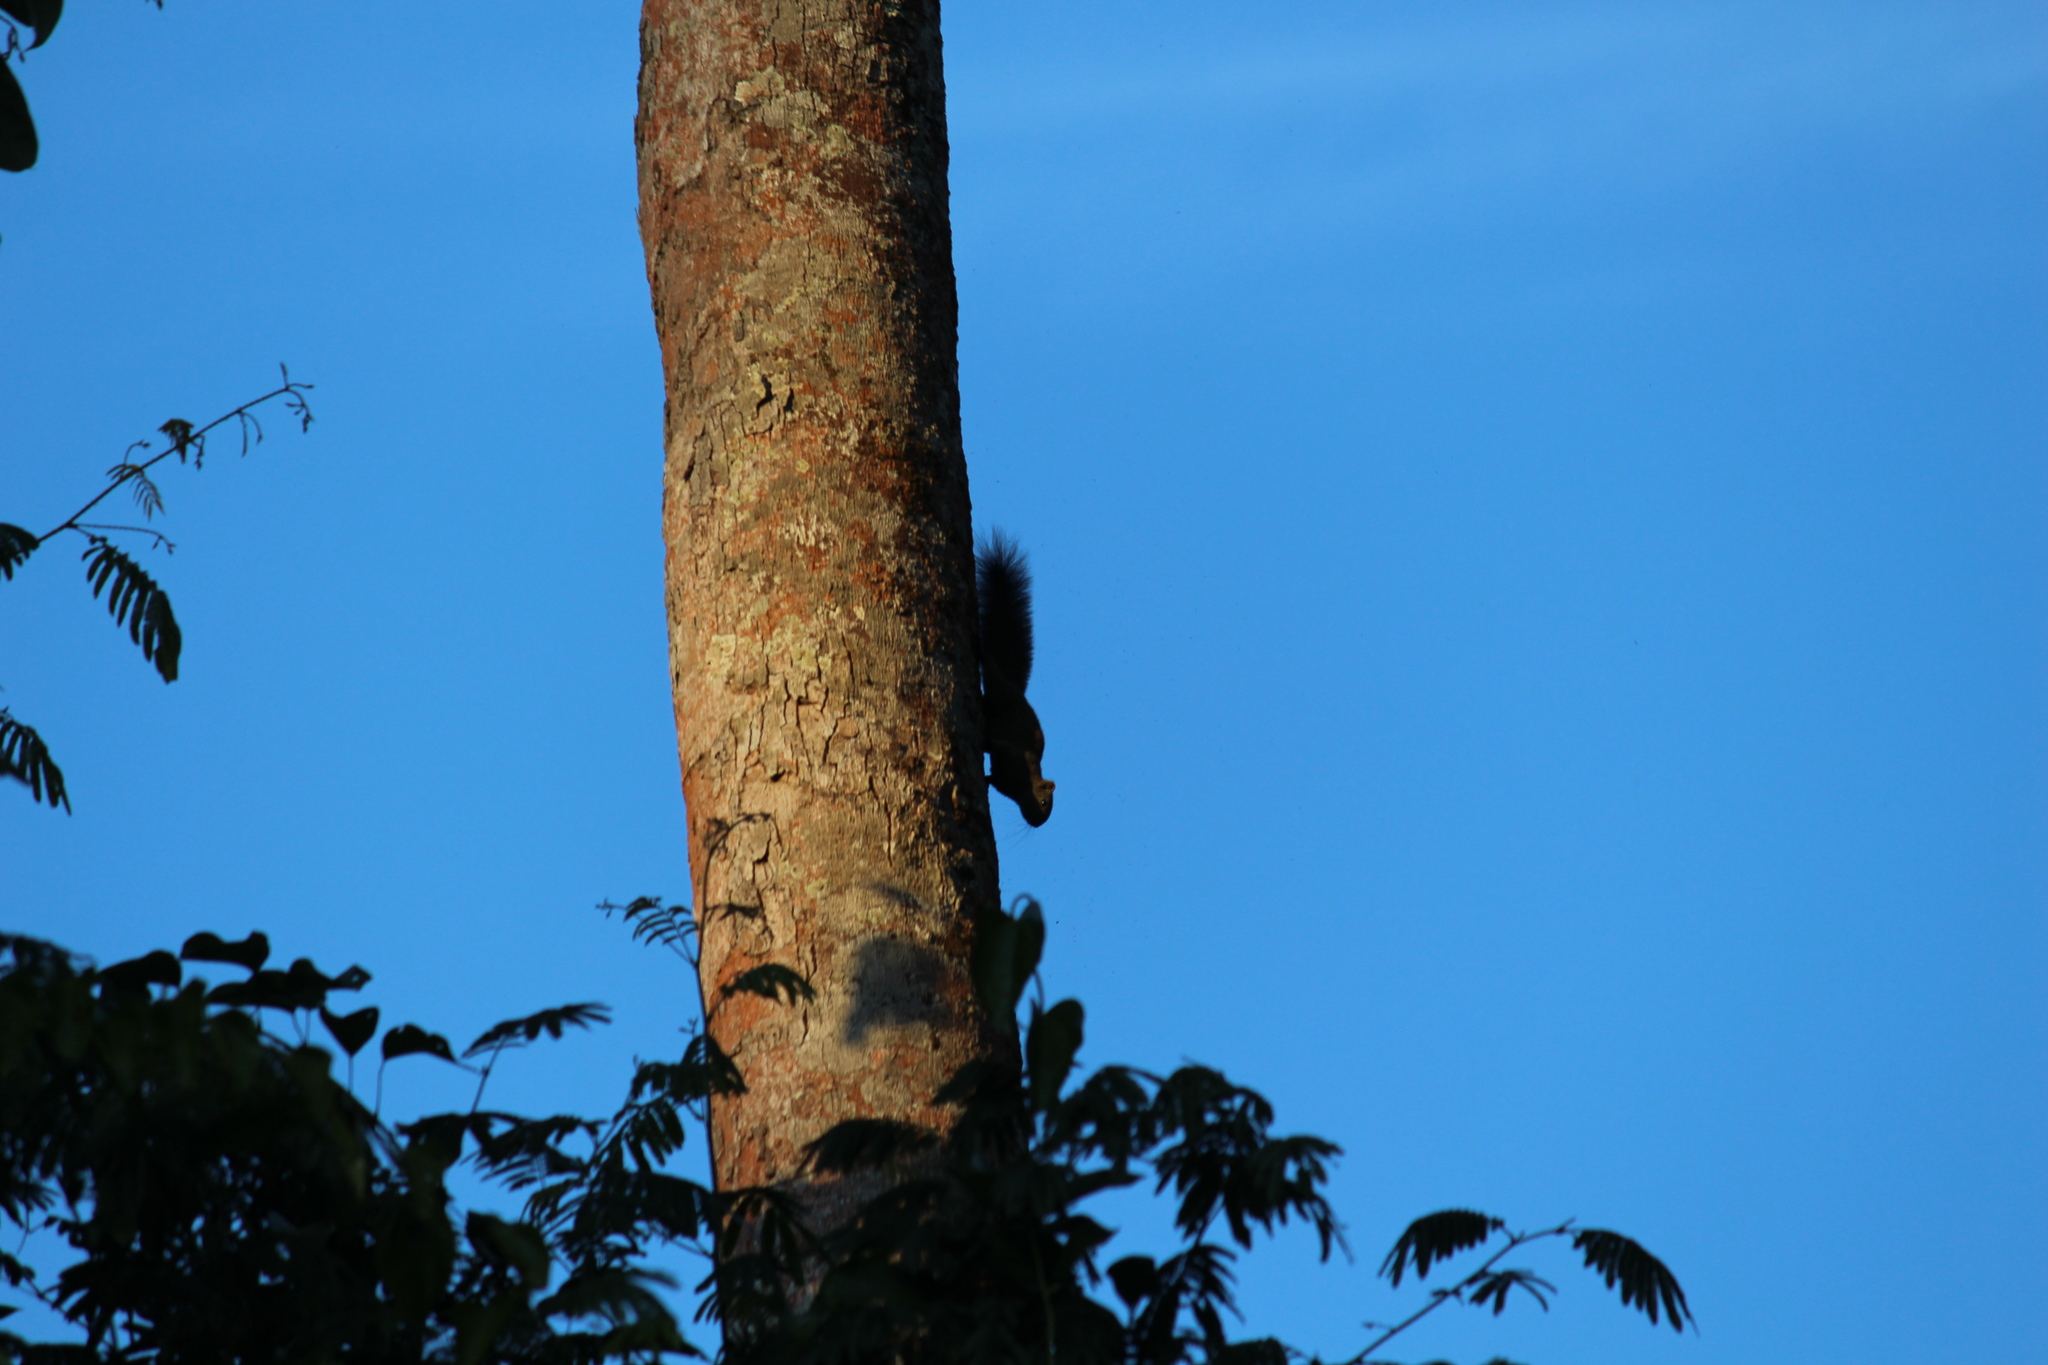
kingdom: Animalia
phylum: Chordata
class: Mammalia
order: Rodentia
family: Sciuridae
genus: Callosciurus
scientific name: Callosciurus pygerythrus
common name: Irrawaddy squirrel
